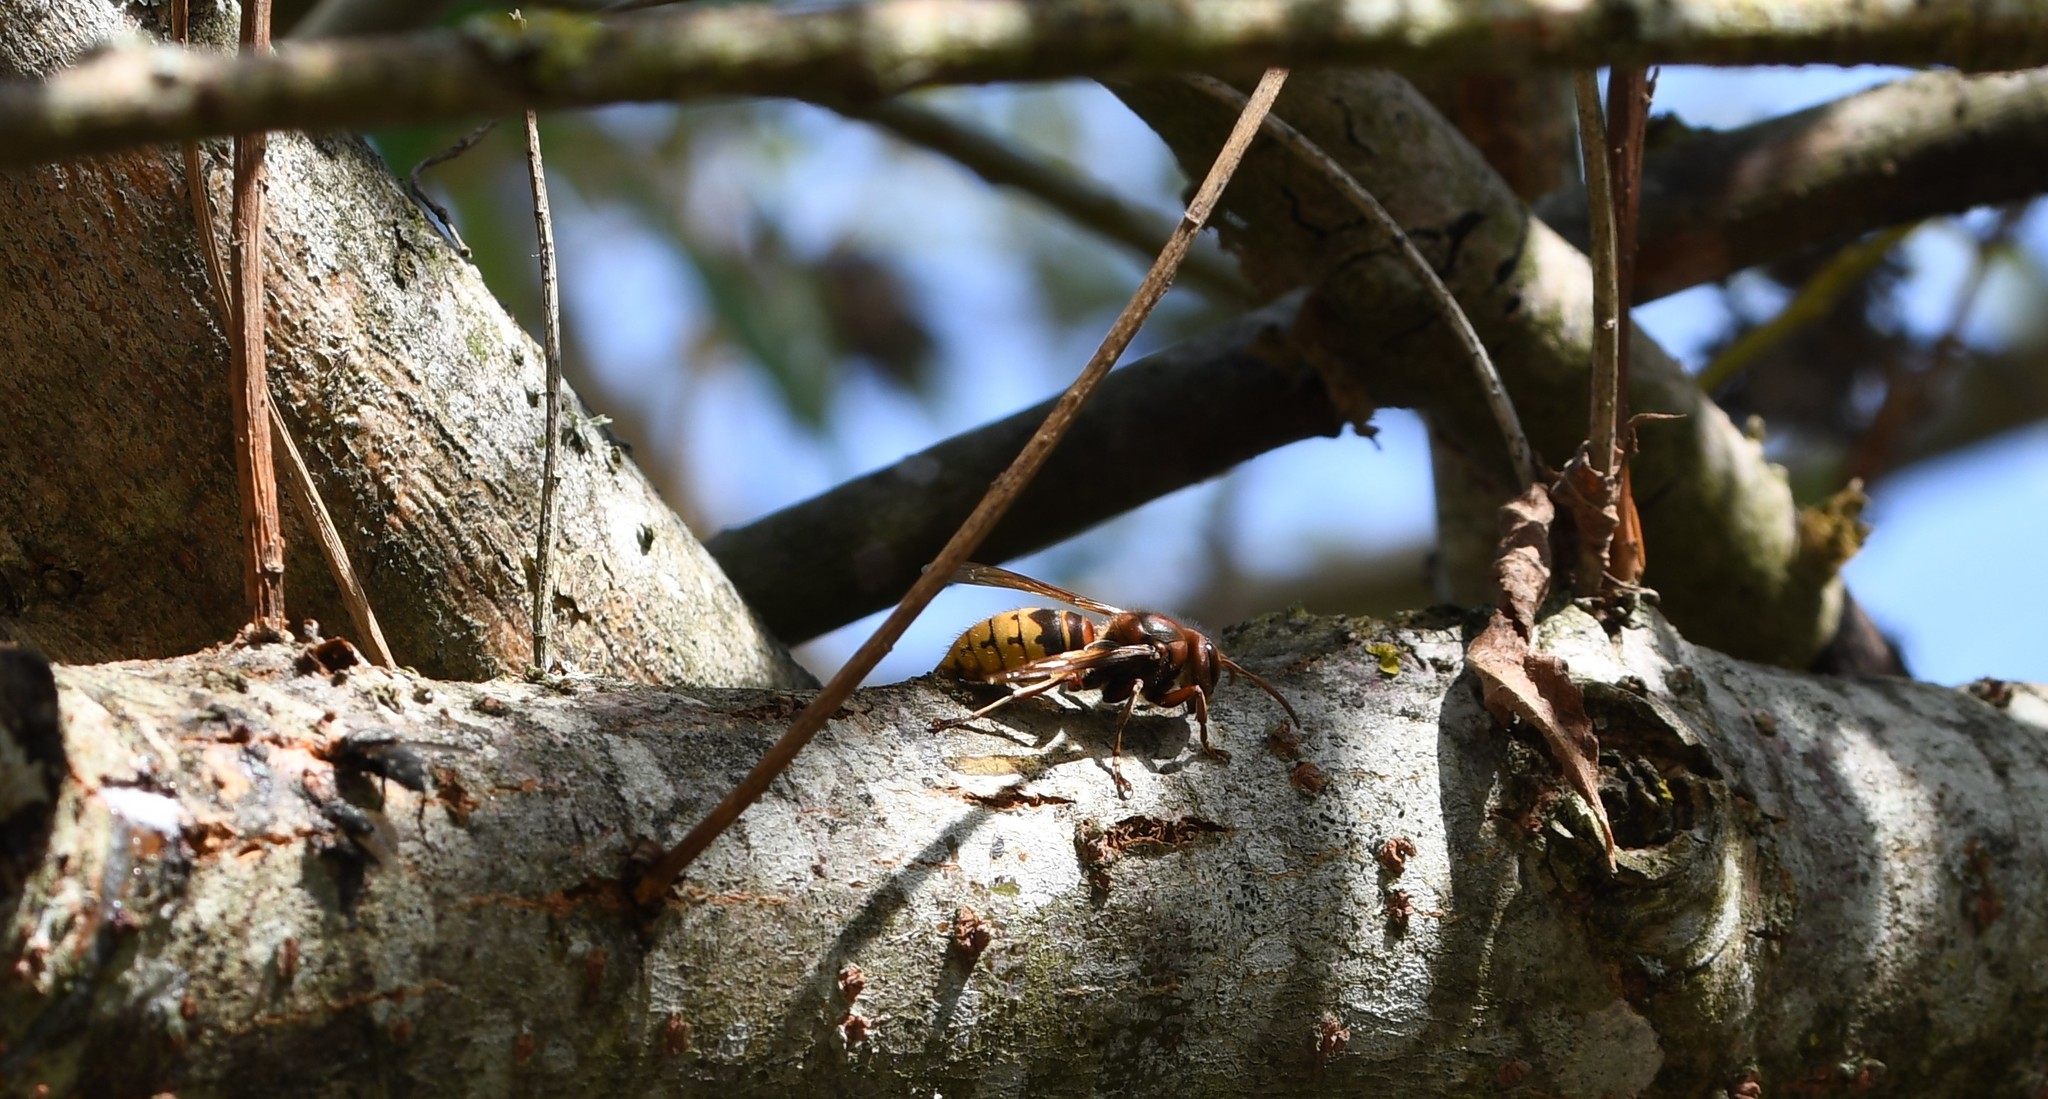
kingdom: Animalia
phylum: Arthropoda
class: Insecta
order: Hymenoptera
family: Vespidae
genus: Vespa
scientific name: Vespa crabro
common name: Hornet
